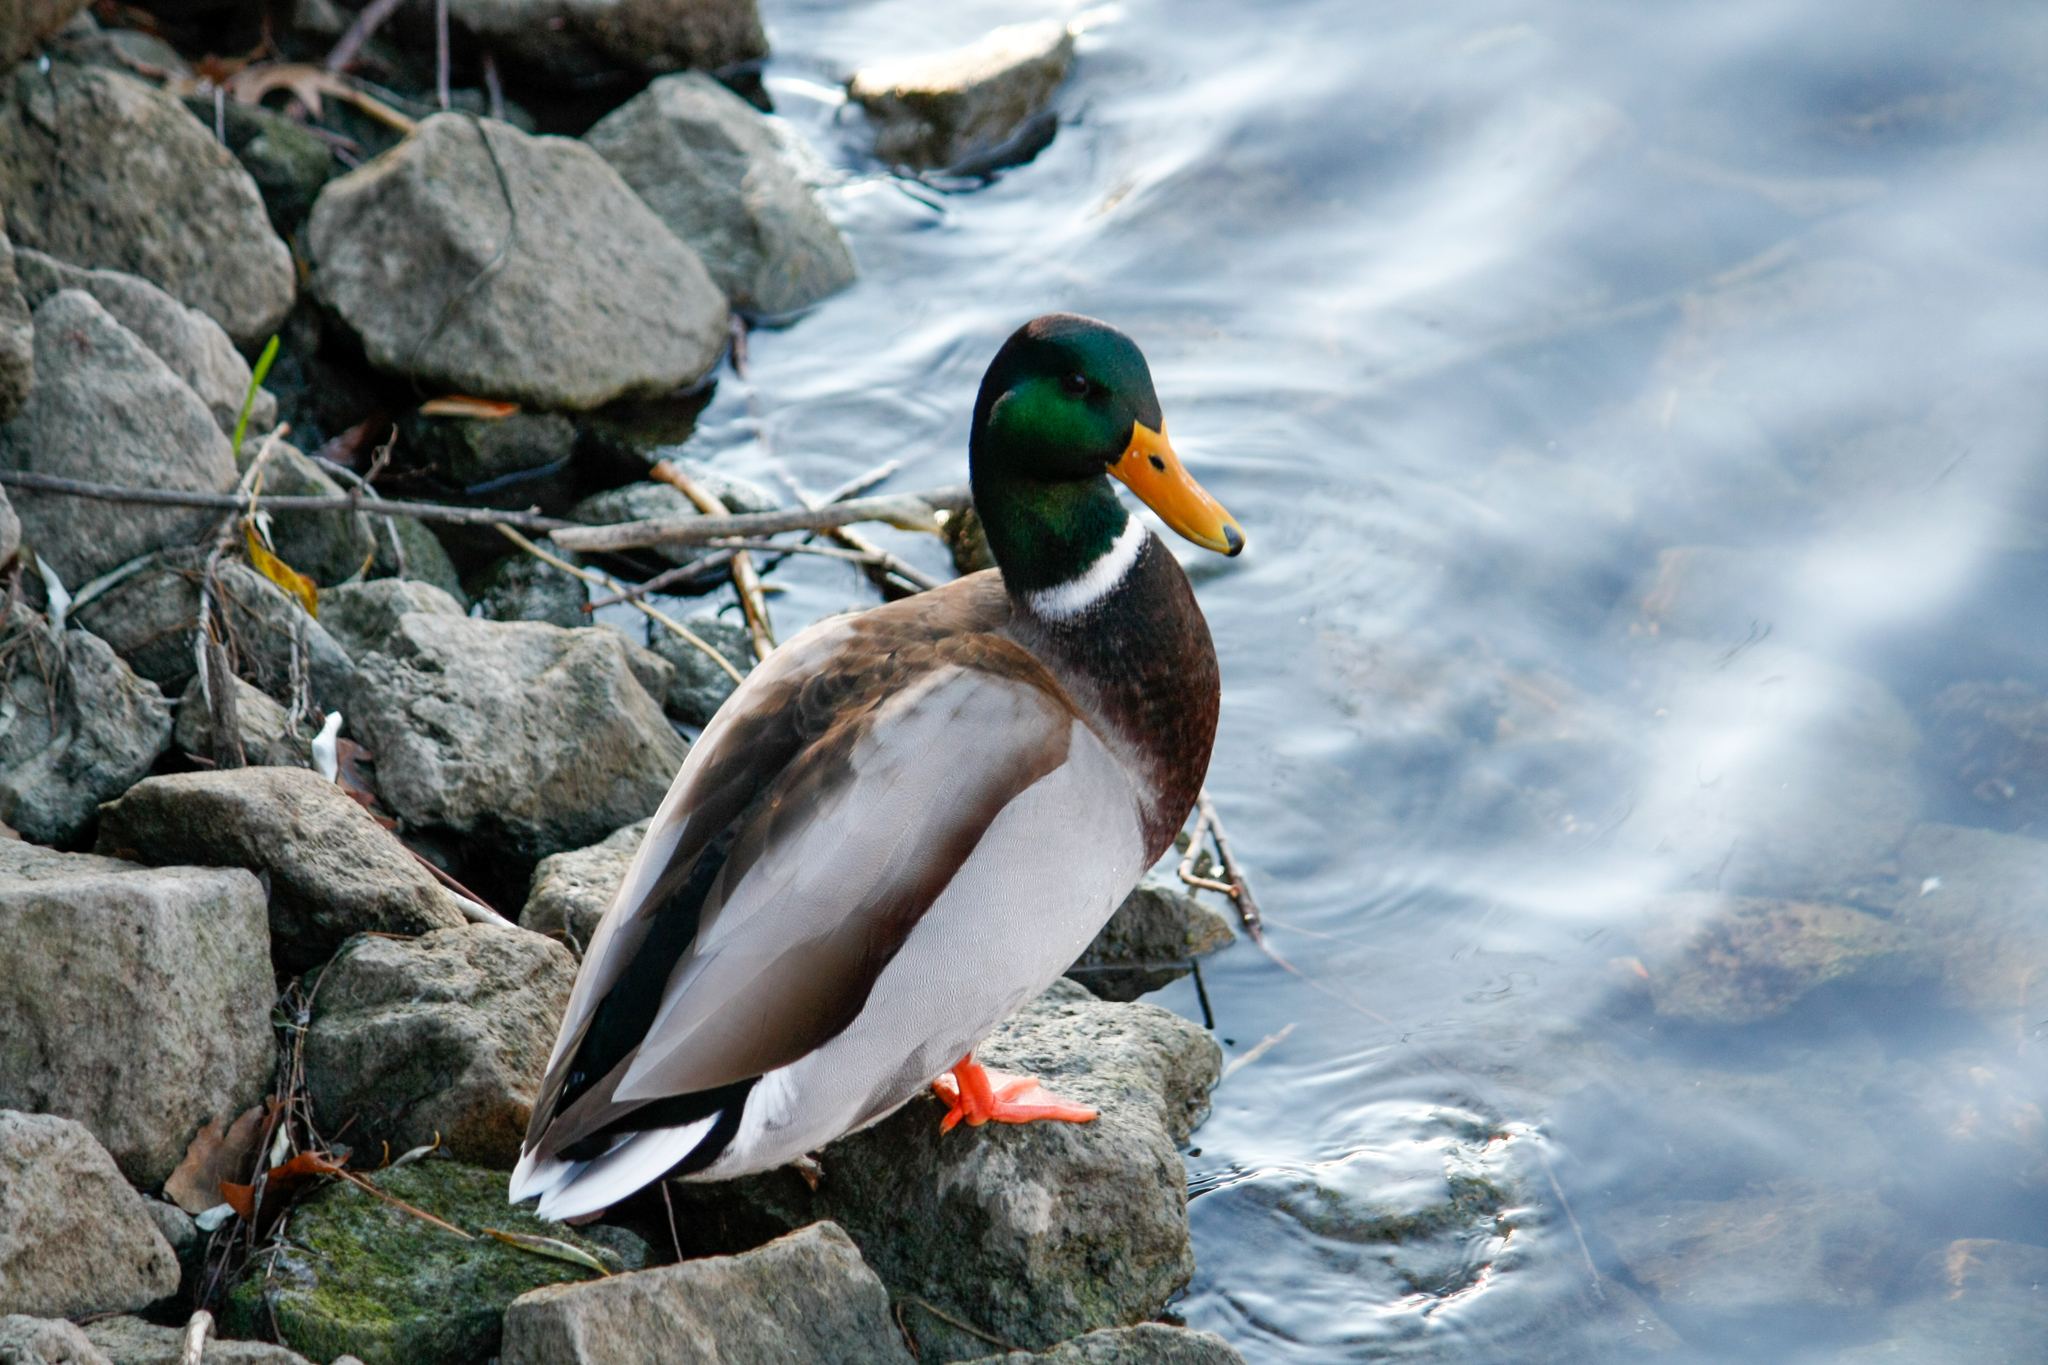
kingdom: Animalia
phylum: Chordata
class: Aves
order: Anseriformes
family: Anatidae
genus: Anas
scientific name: Anas platyrhynchos
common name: Mallard
